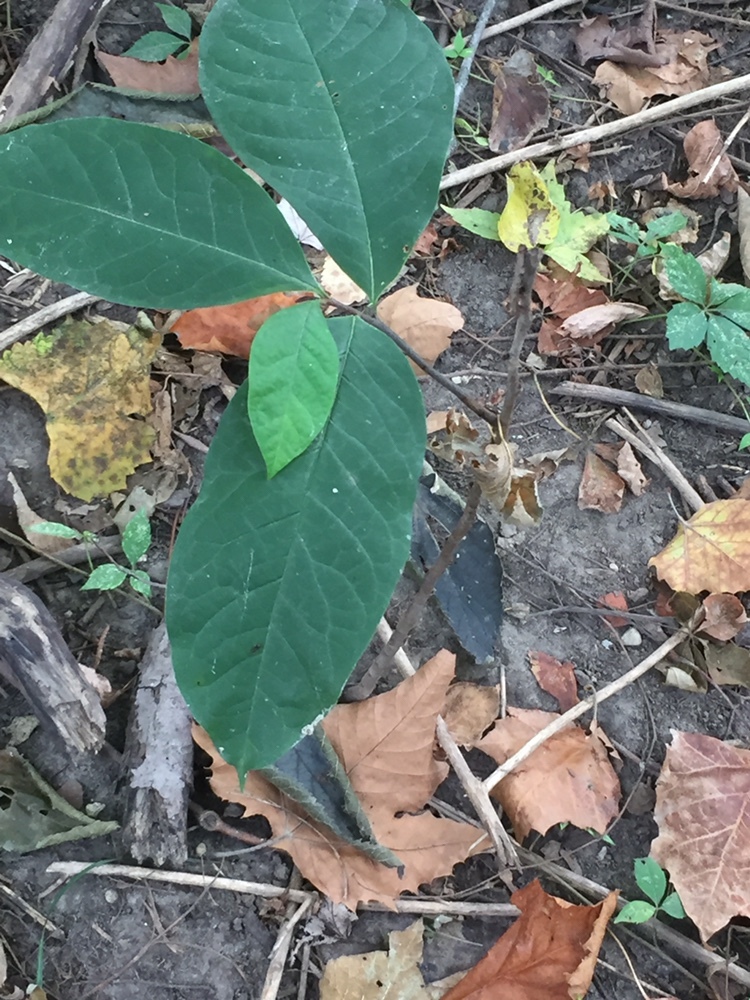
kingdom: Plantae
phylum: Tracheophyta
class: Magnoliopsida
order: Magnoliales
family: Annonaceae
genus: Asimina
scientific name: Asimina triloba
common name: Dog-banana
